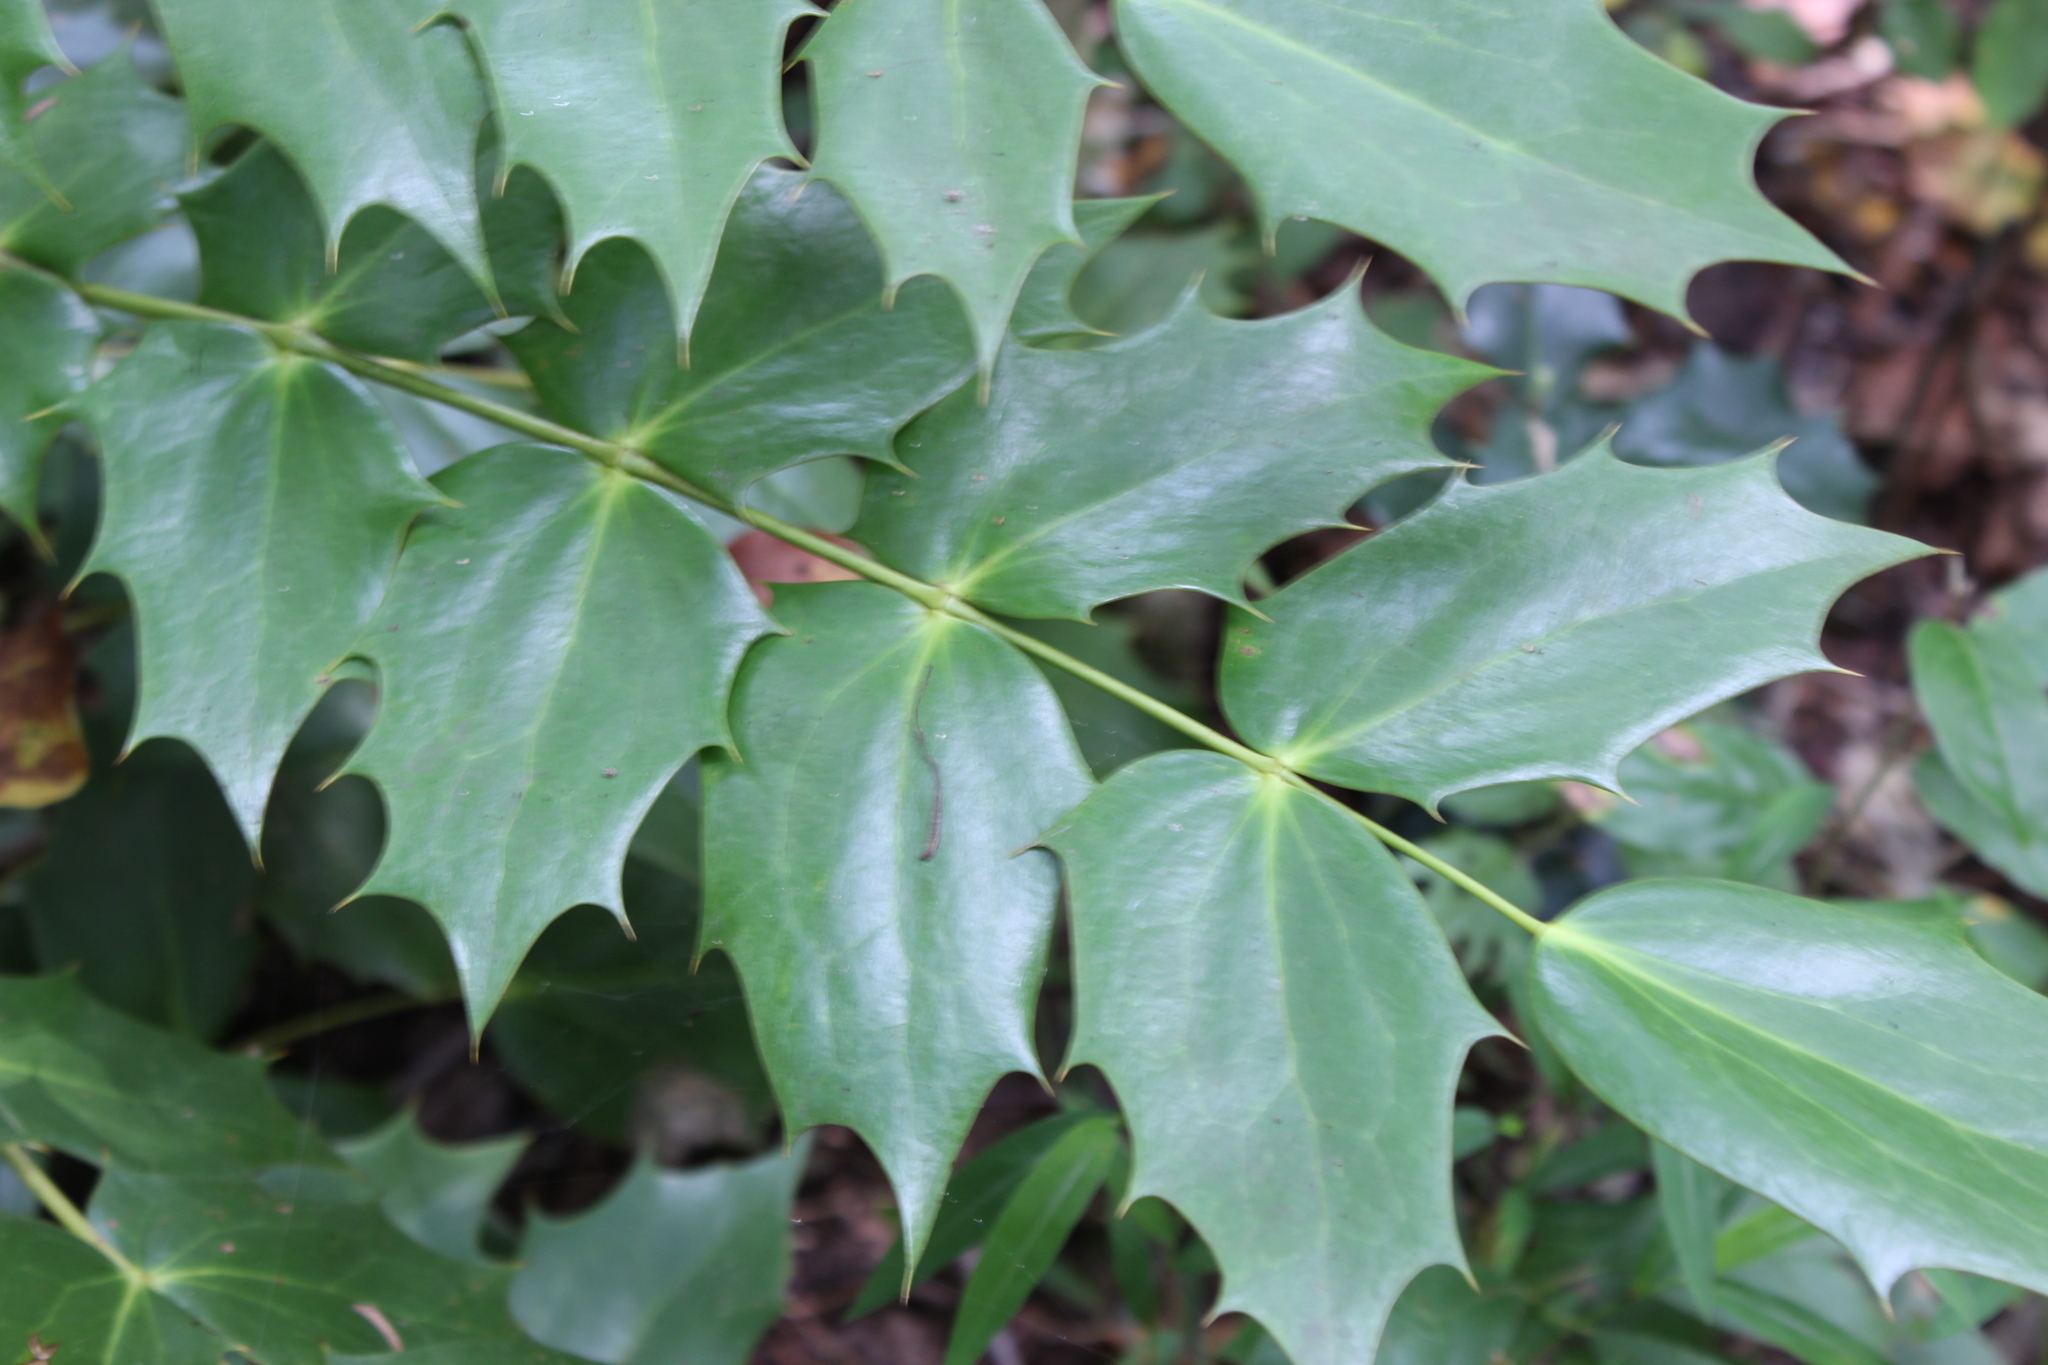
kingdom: Plantae
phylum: Tracheophyta
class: Magnoliopsida
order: Ranunculales
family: Berberidaceae
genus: Mahonia
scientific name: Mahonia bealei
